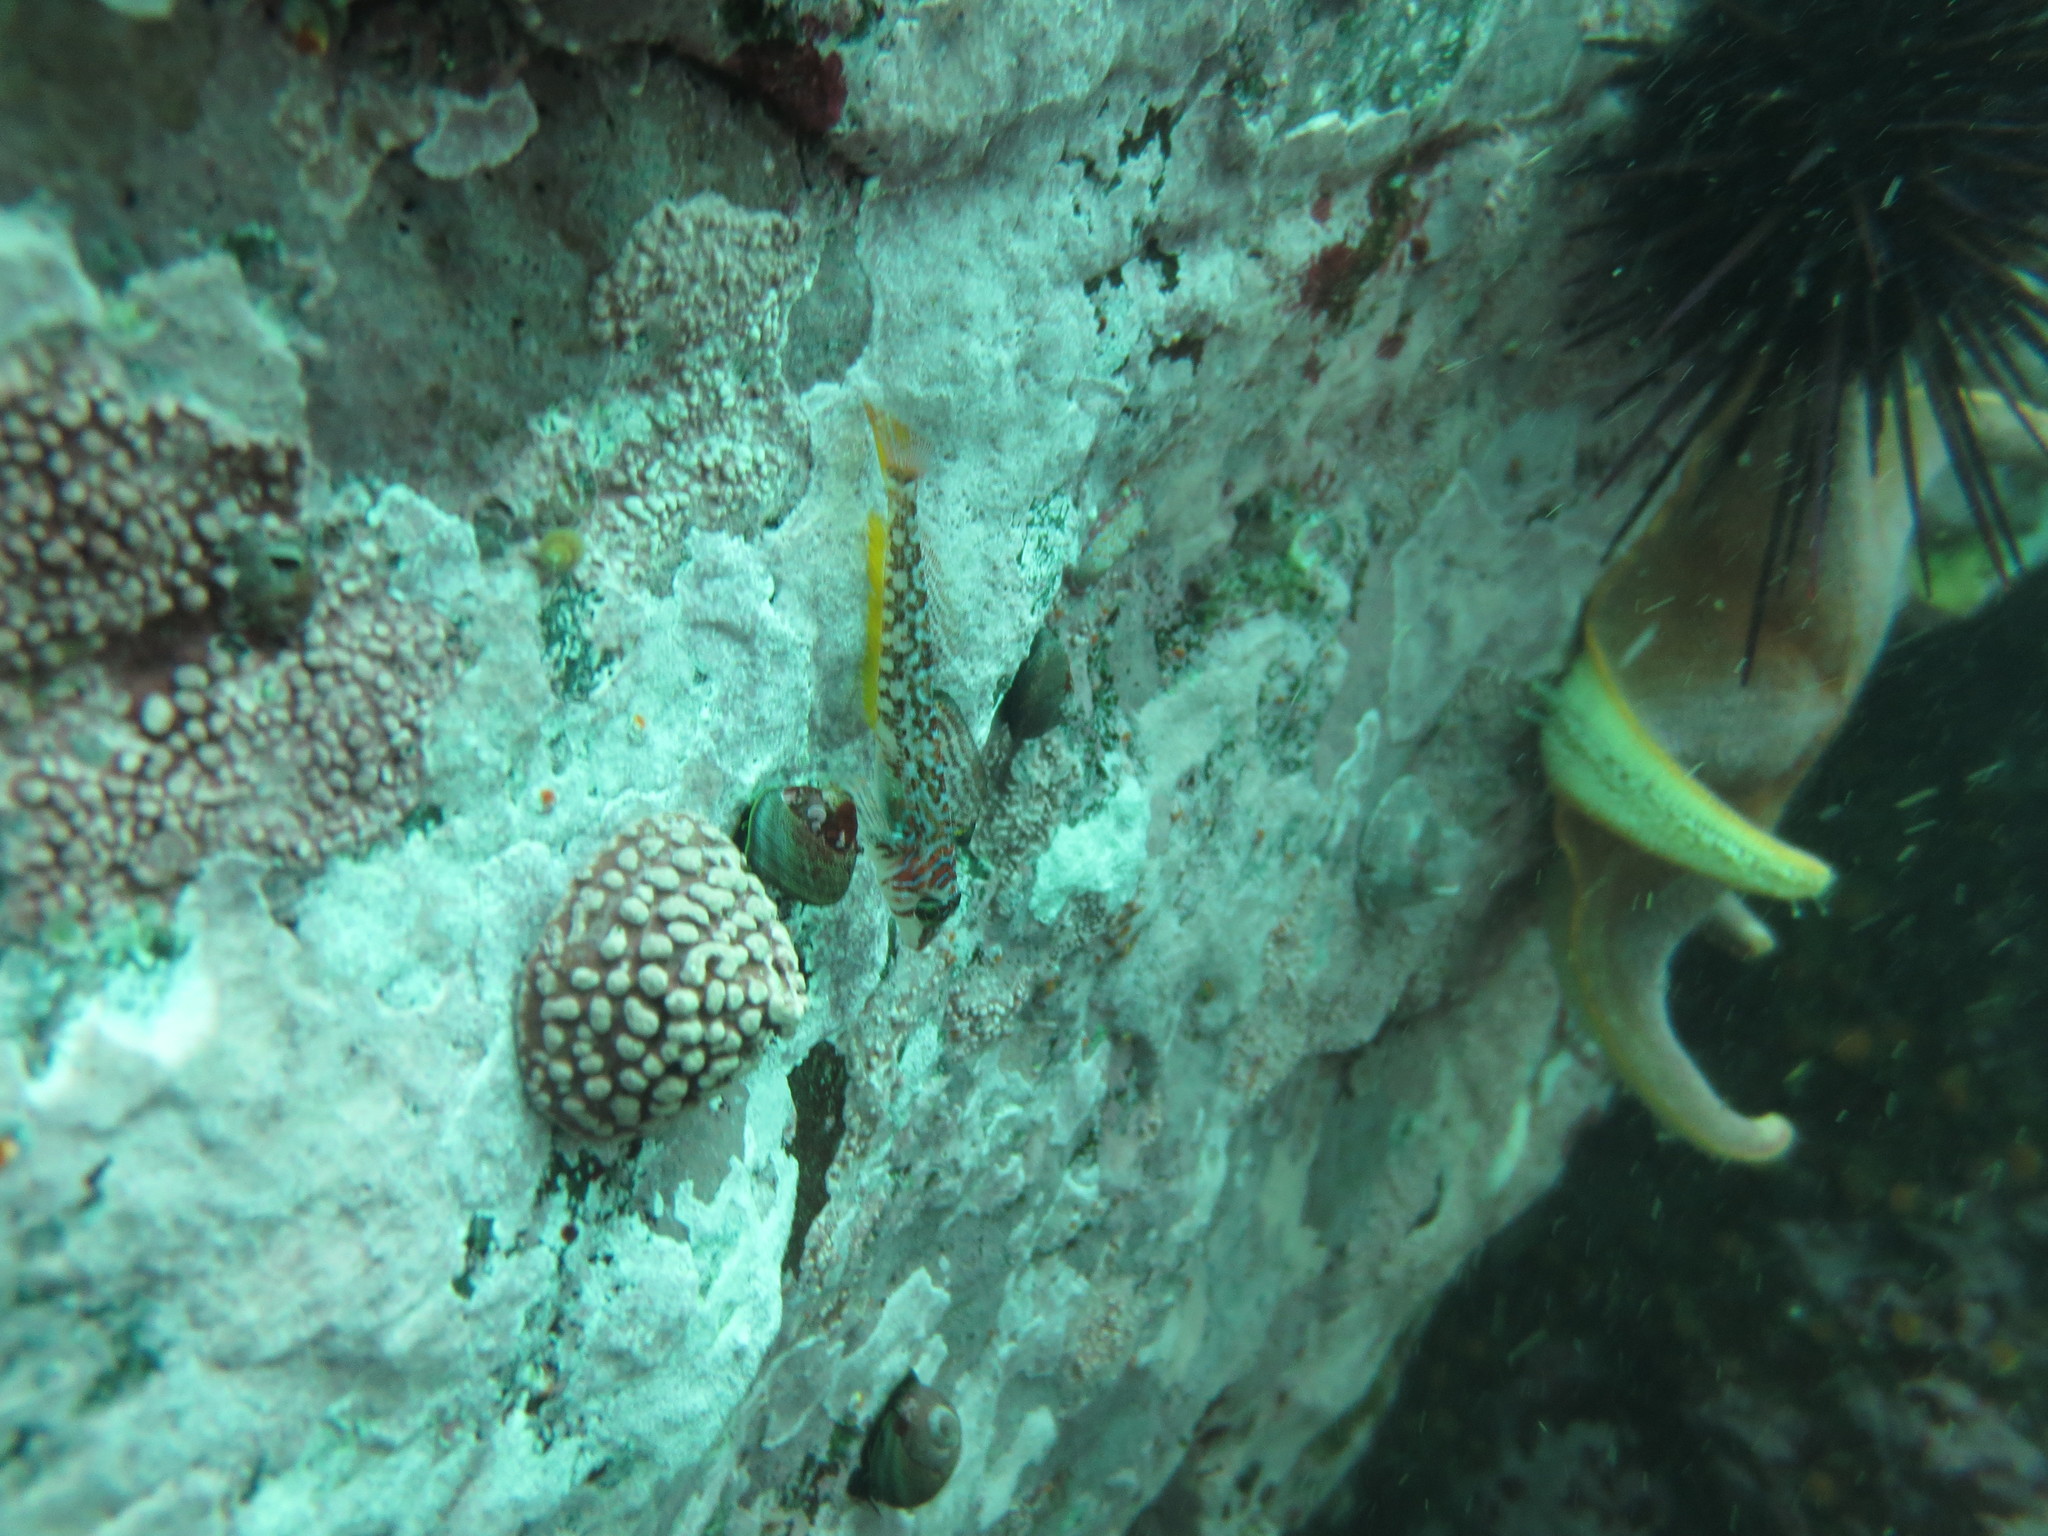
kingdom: Animalia
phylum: Chordata
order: Scorpaeniformes
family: Cottidae
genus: Jordania
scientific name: Jordania zonope
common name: Longfin sculpin
